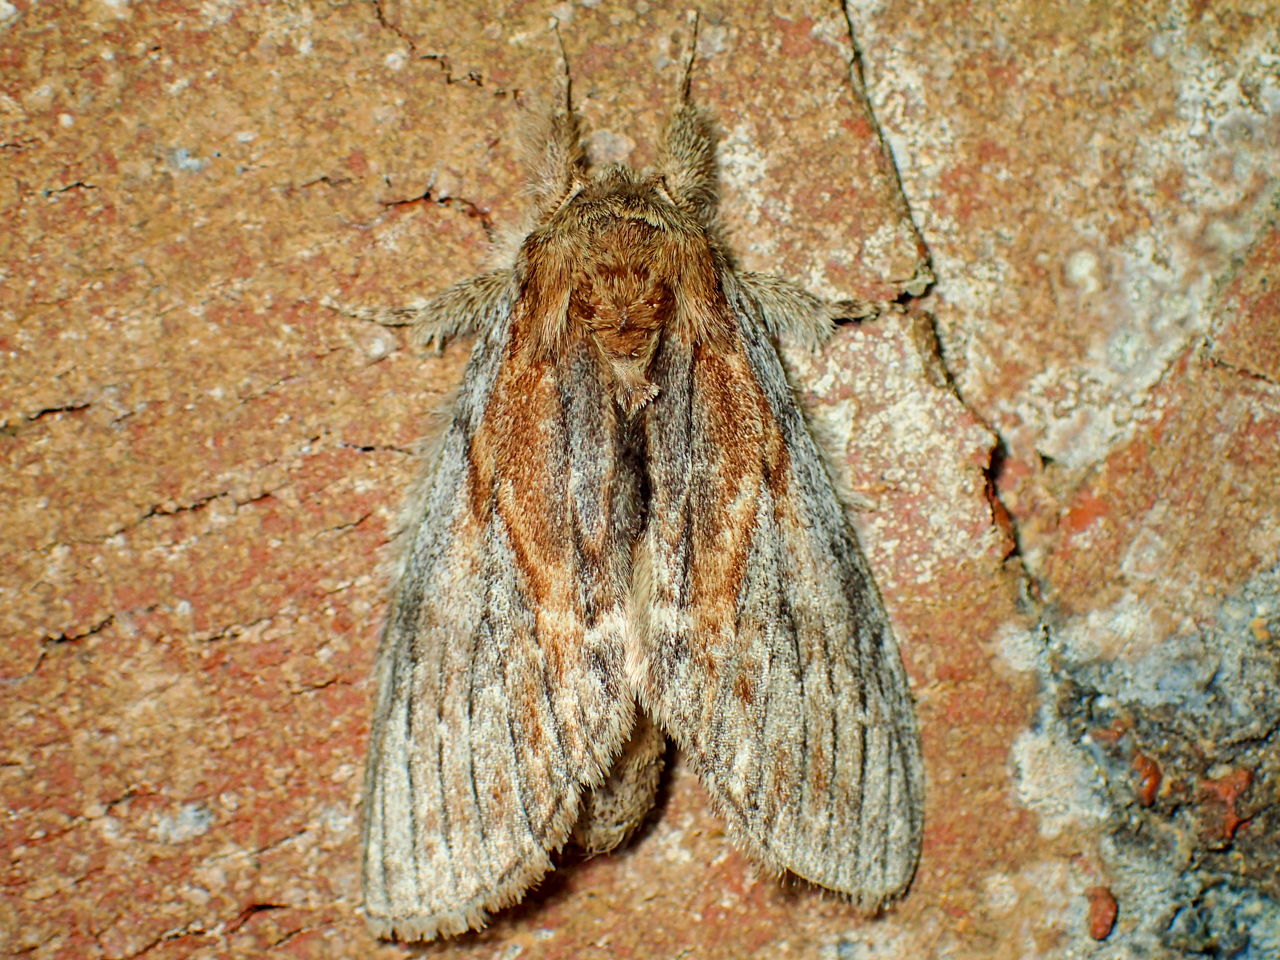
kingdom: Animalia
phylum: Arthropoda
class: Insecta
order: Lepidoptera
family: Notodontidae
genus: Peridea
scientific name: Peridea basitriens
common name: Oval-based prominent
